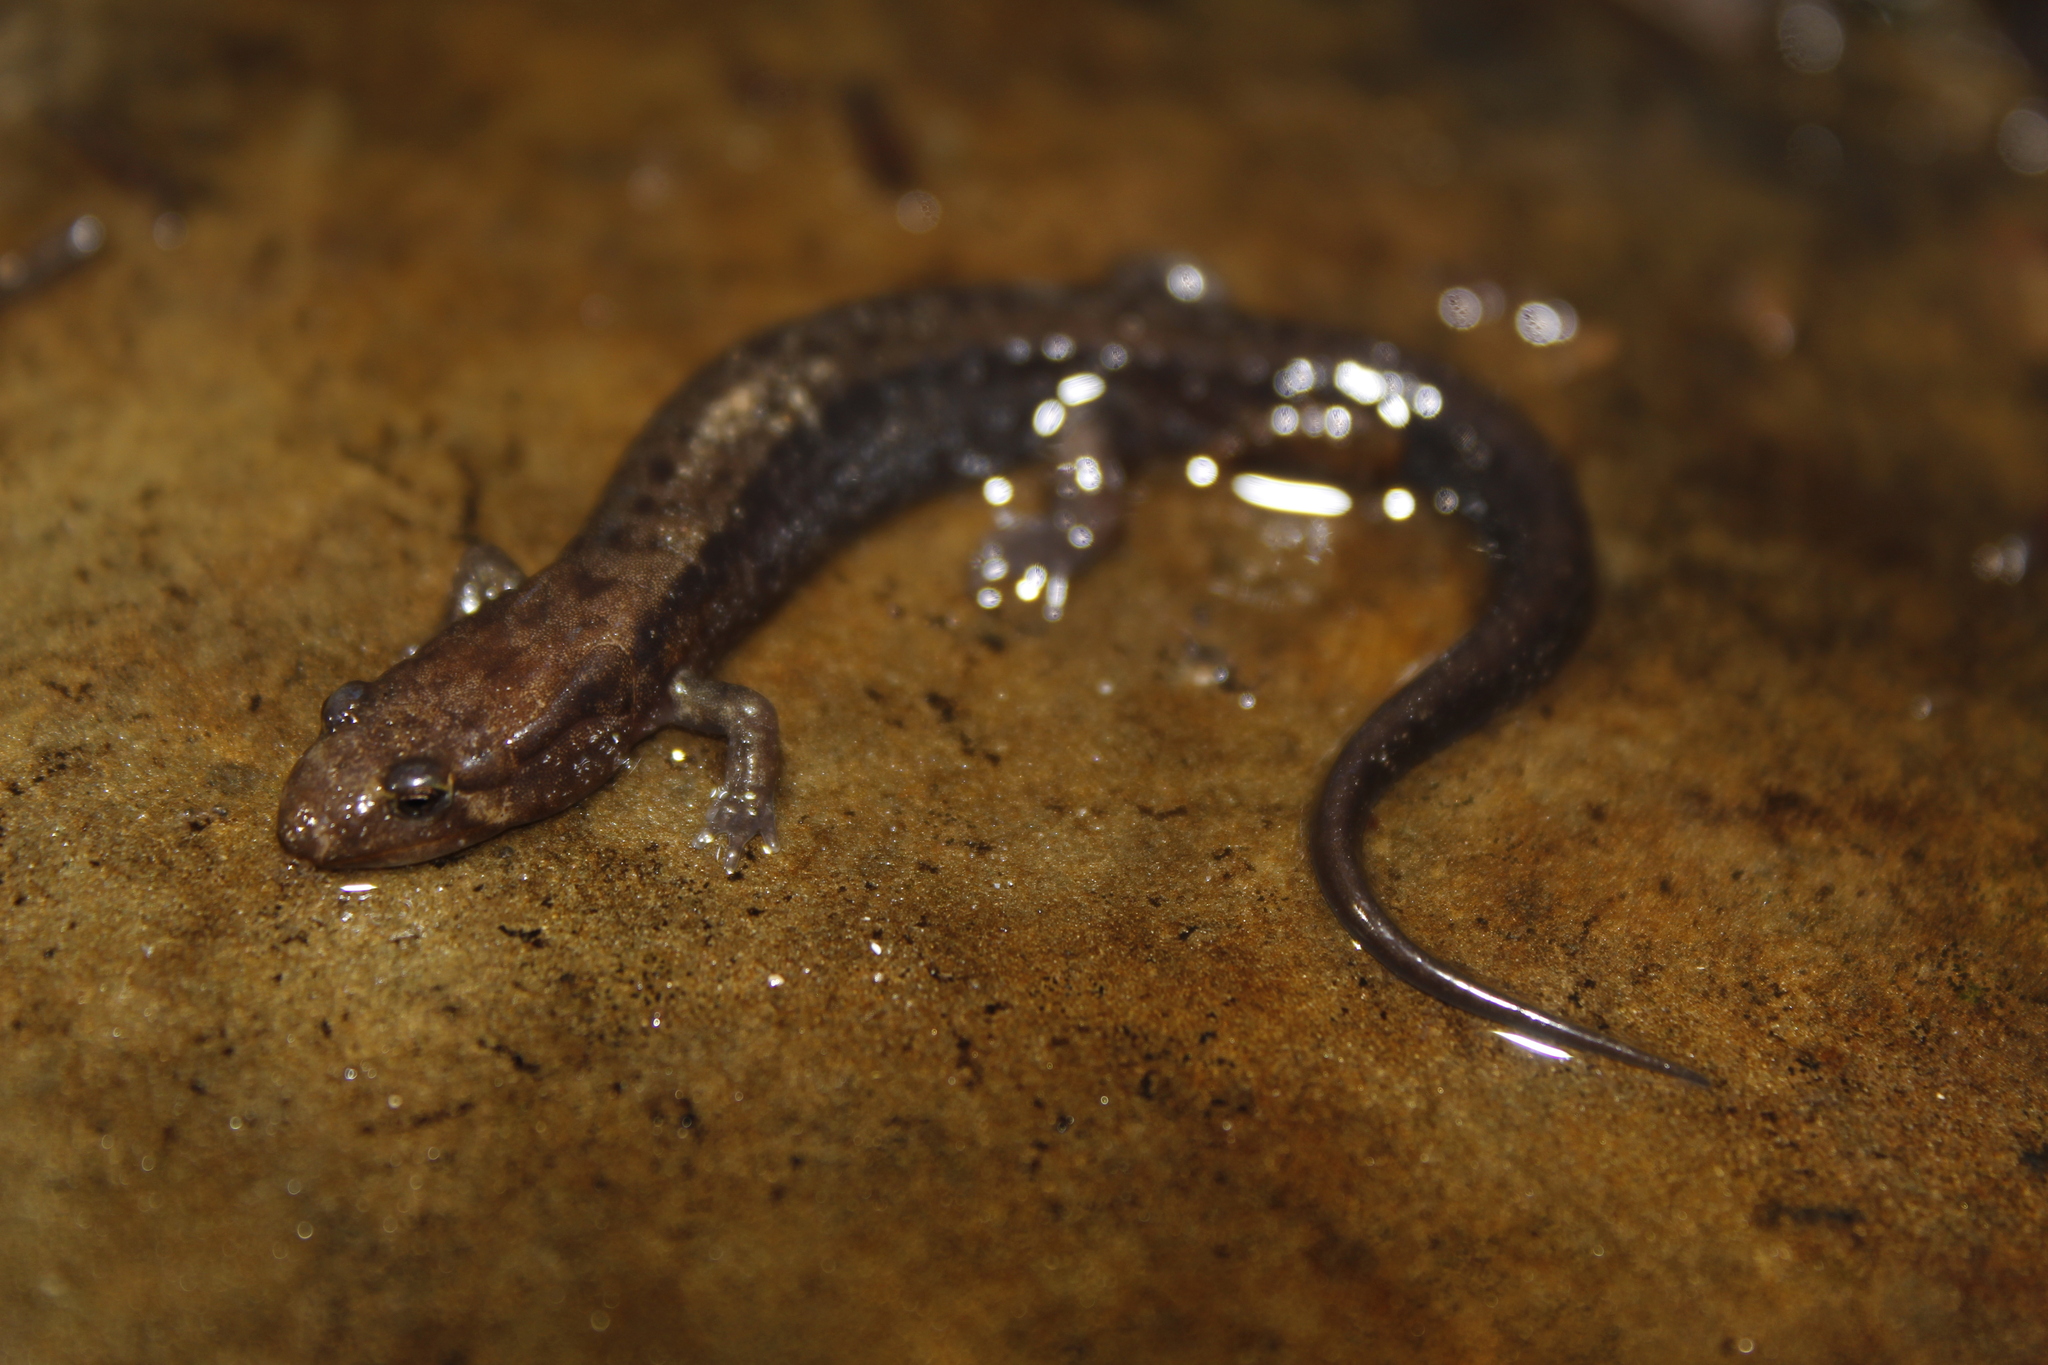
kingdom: Animalia
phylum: Chordata
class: Amphibia
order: Caudata
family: Plethodontidae
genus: Desmognathus
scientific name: Desmognathus ochrophaeus
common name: Allegheny mountain dusky salamander
